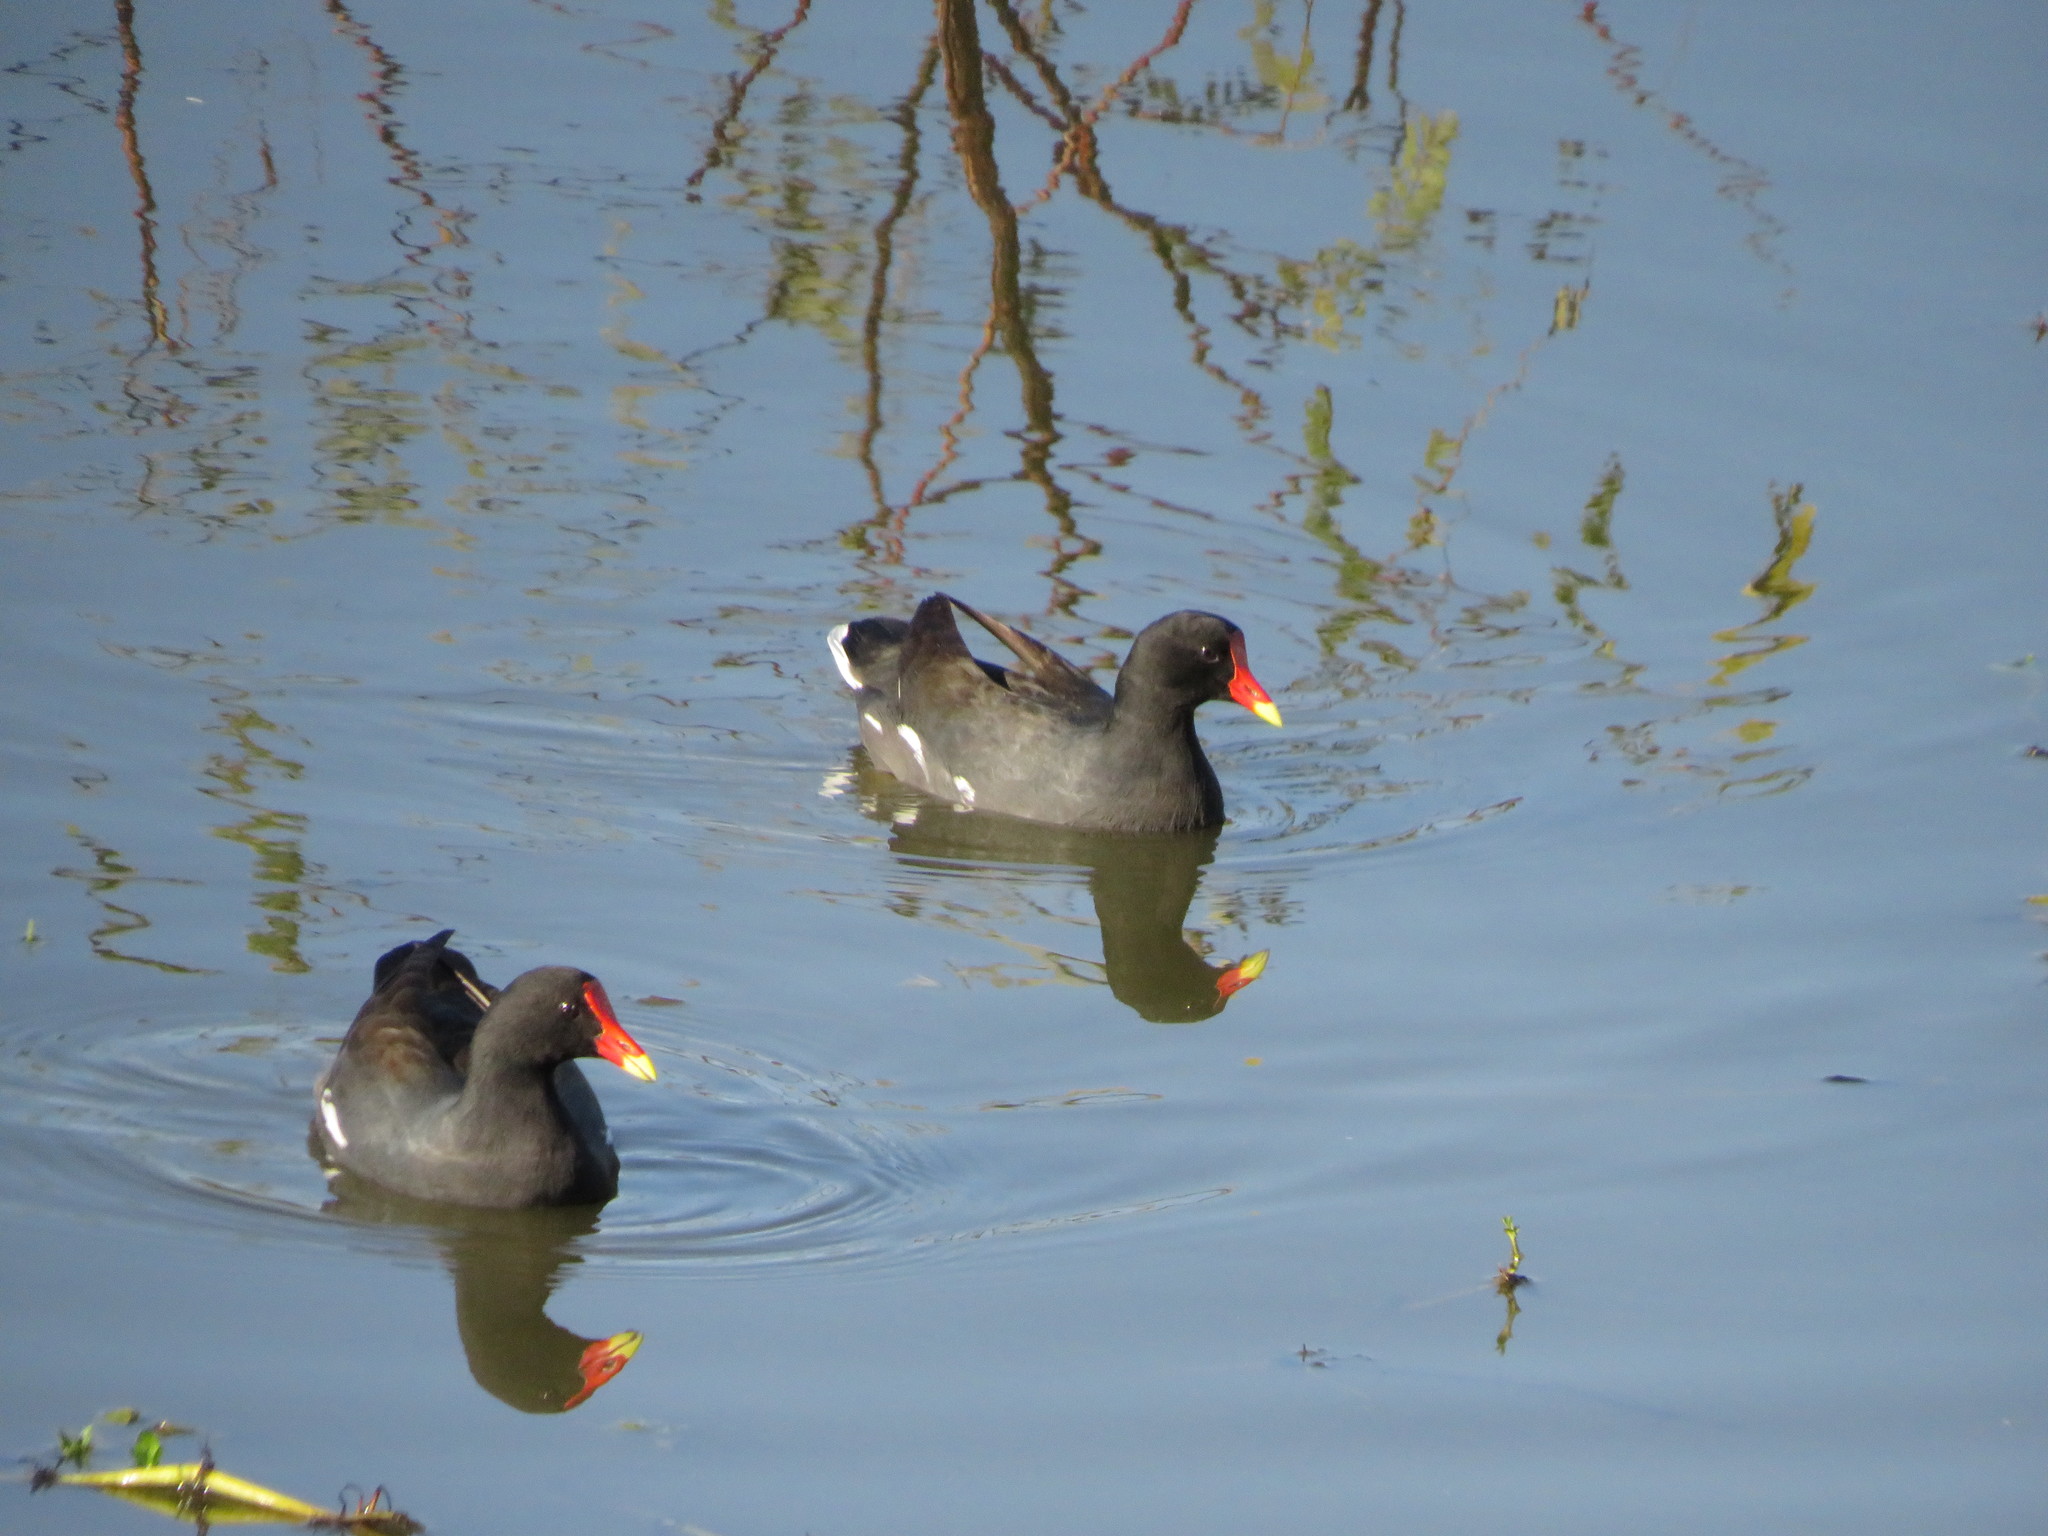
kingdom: Animalia
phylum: Chordata
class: Aves
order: Gruiformes
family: Rallidae
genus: Gallinula
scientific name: Gallinula chloropus
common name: Common moorhen
